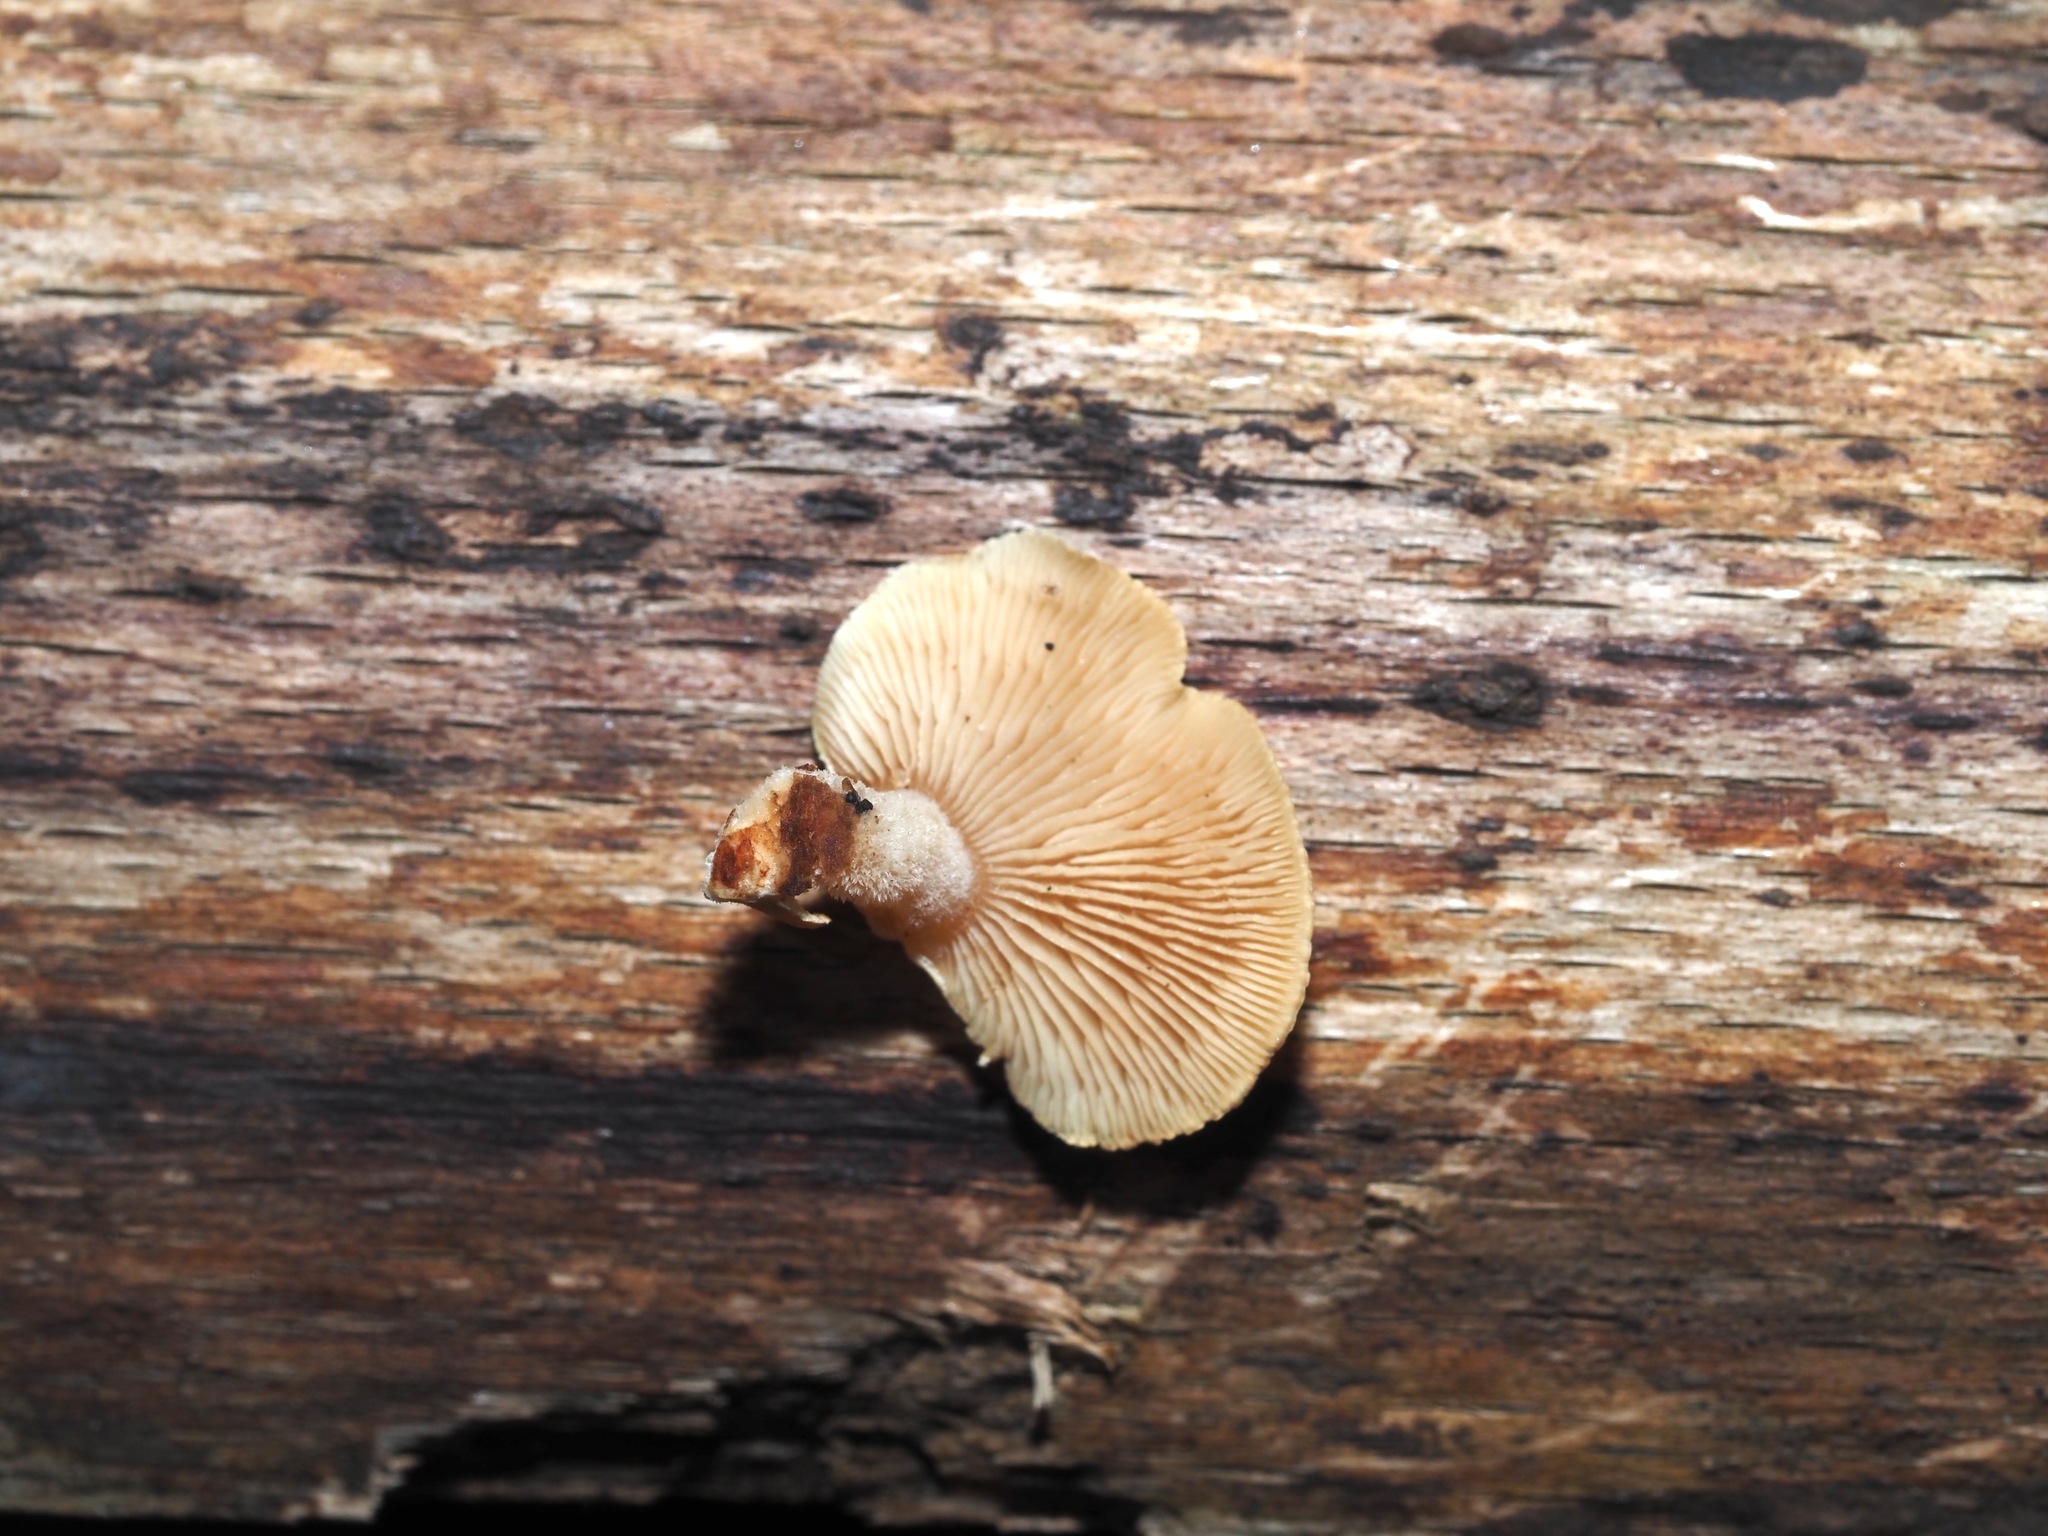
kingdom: Fungi
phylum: Basidiomycota
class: Agaricomycetes
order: Agaricales
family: Mycenaceae
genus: Panellus
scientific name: Panellus stipticus
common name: Bitter oysterling
